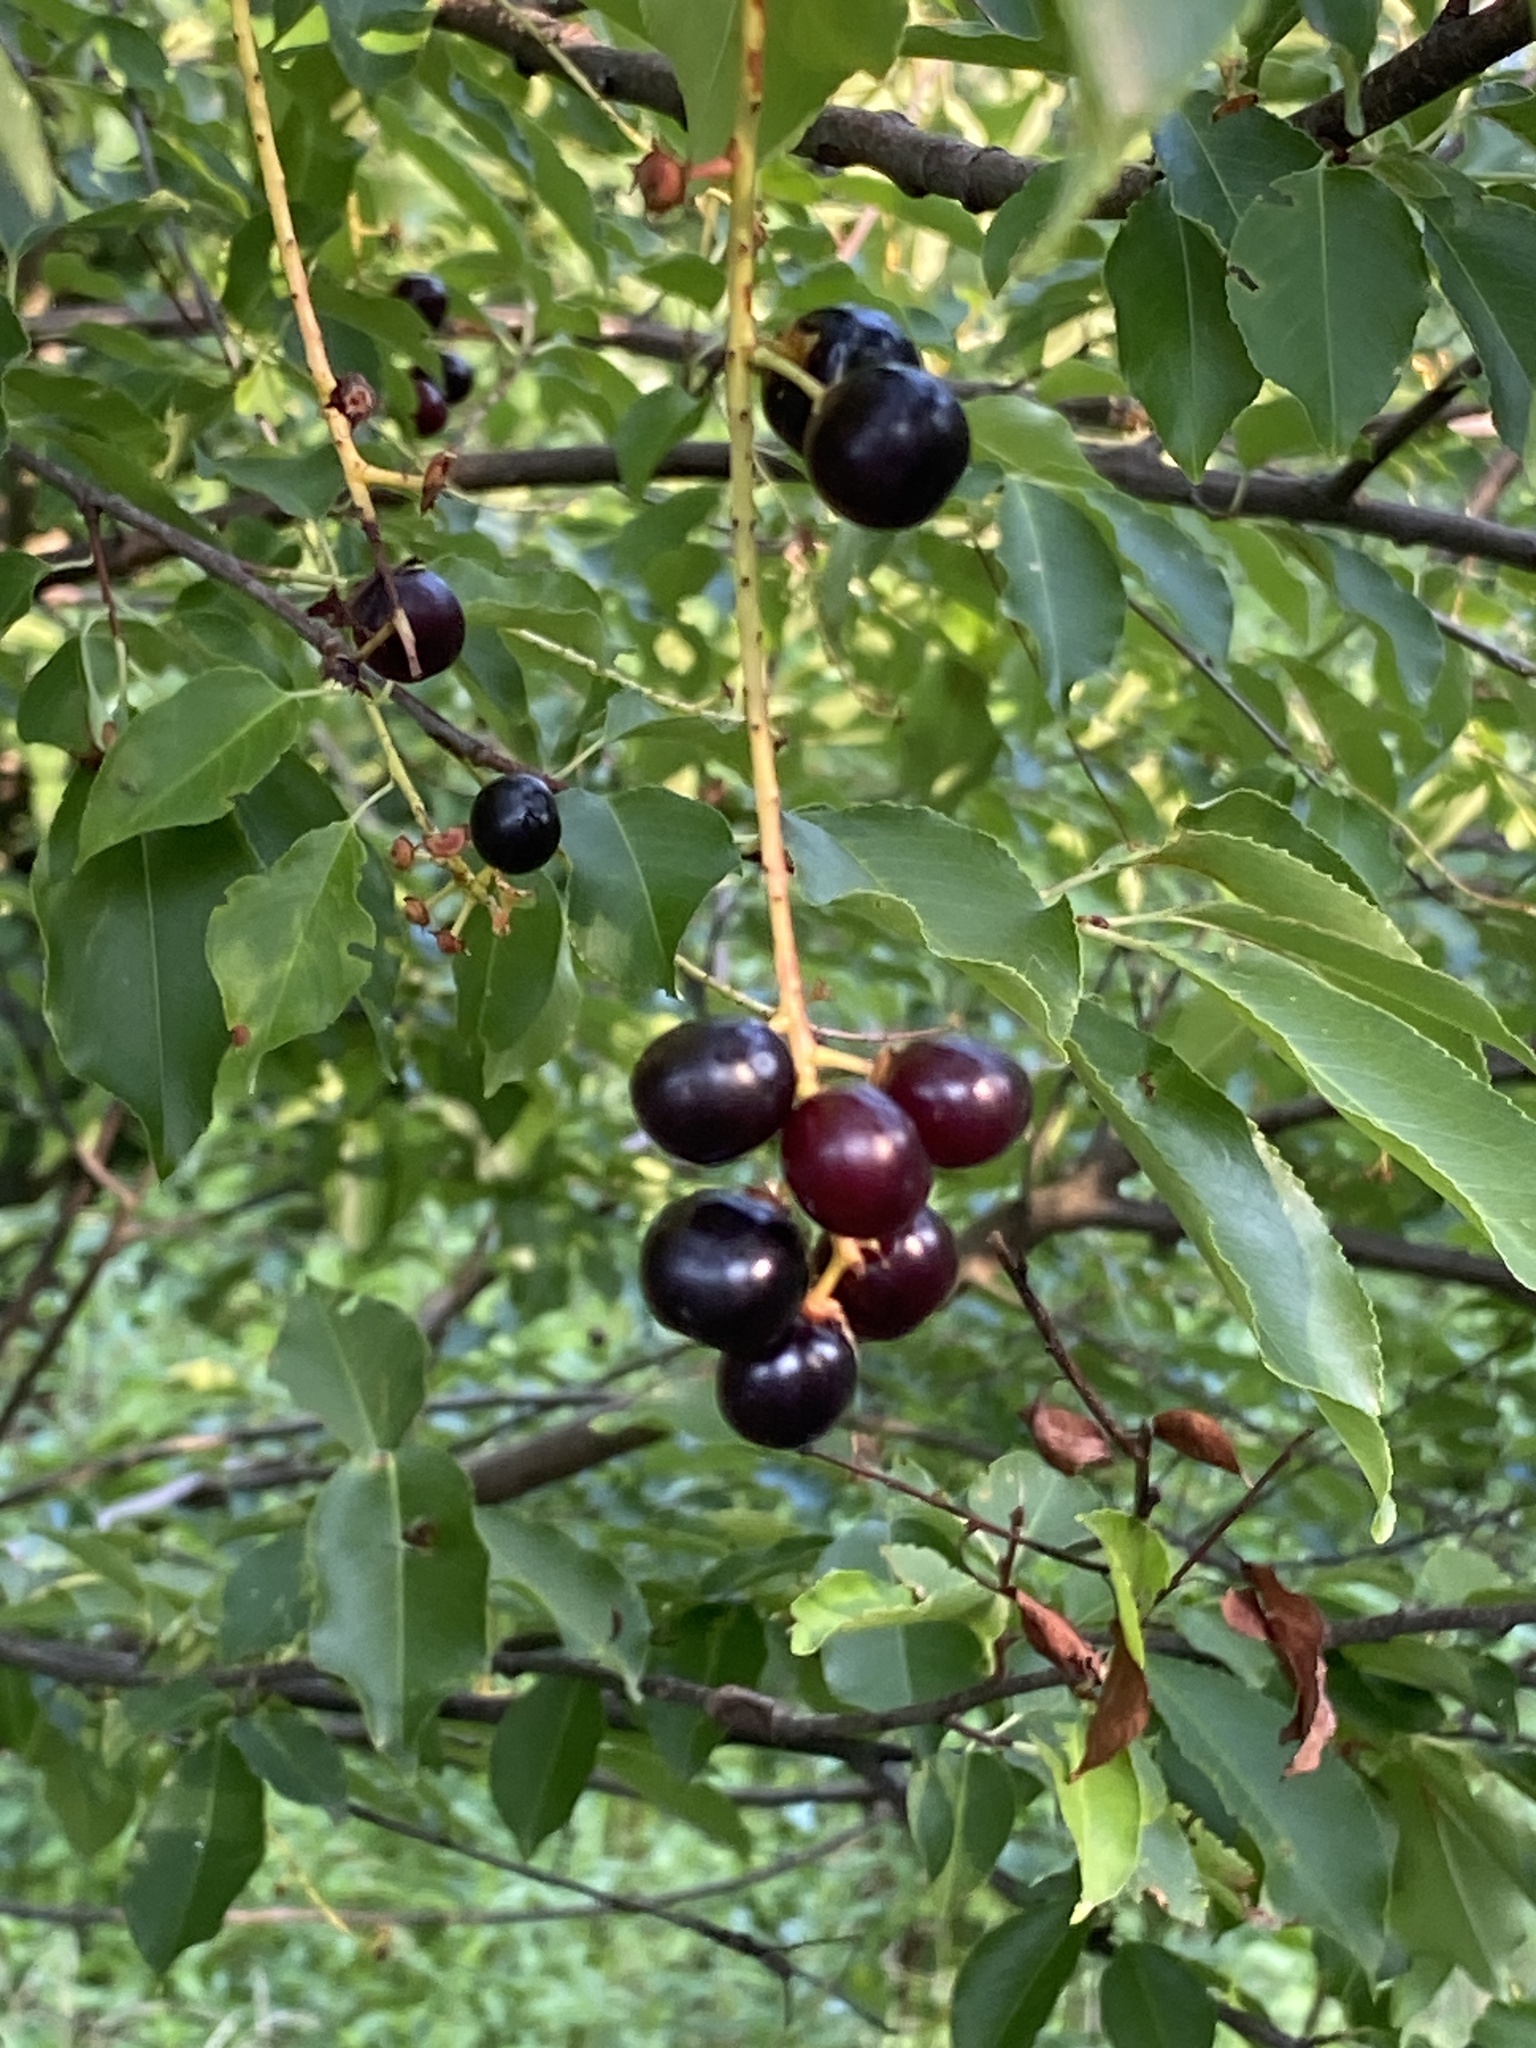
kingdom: Plantae
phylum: Tracheophyta
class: Magnoliopsida
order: Rosales
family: Rosaceae
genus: Prunus
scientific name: Prunus serotina
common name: Black cherry
